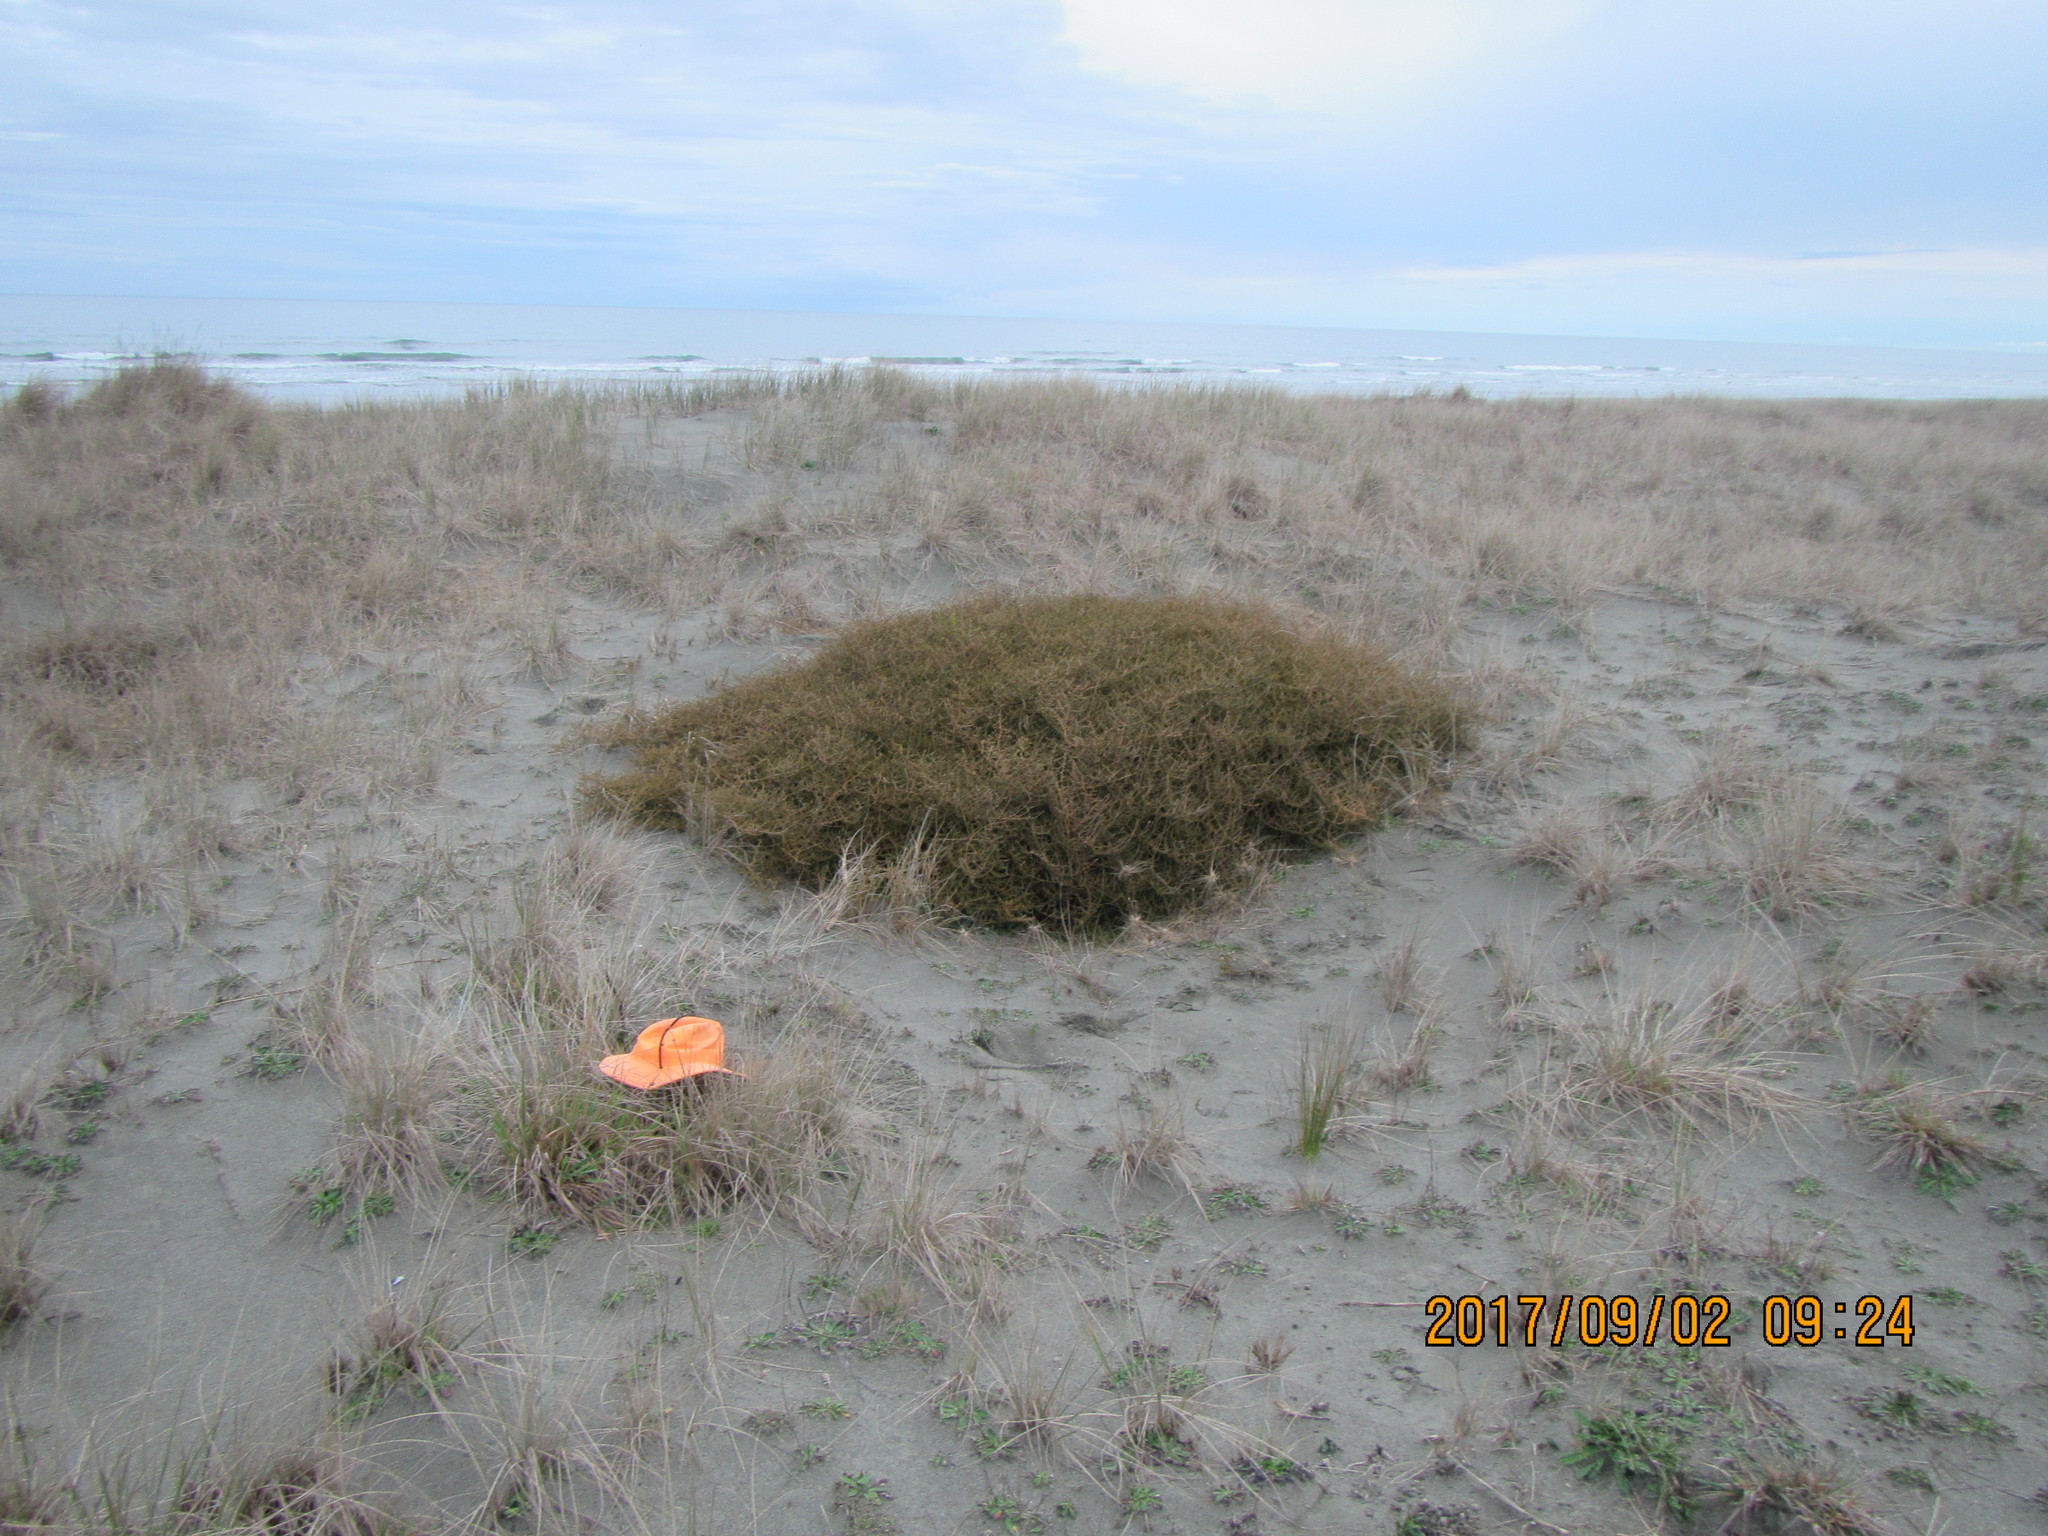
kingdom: Plantae
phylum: Tracheophyta
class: Liliopsida
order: Poales
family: Poaceae
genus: Lachnagrostis
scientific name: Lachnagrostis billardierei
